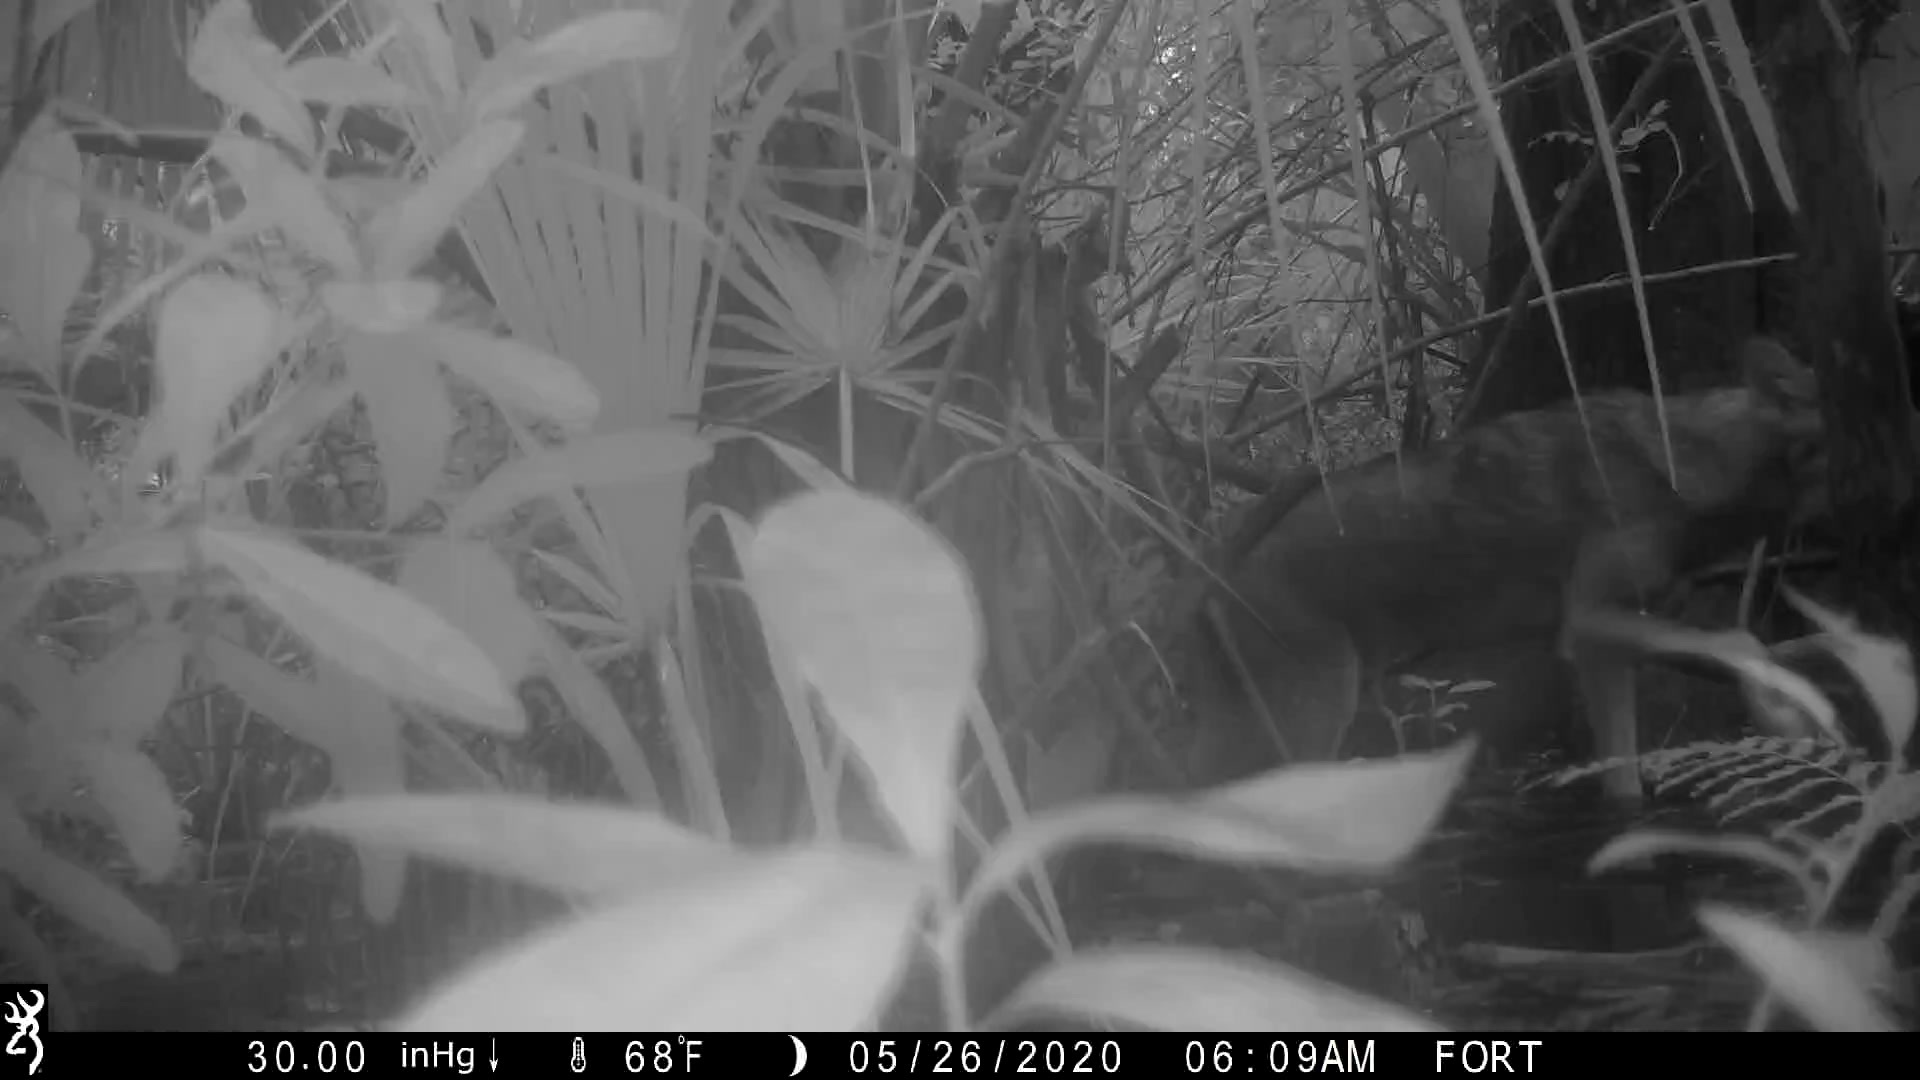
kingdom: Animalia
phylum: Chordata
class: Mammalia
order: Carnivora
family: Canidae
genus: Canis
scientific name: Canis latrans
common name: Coyote
